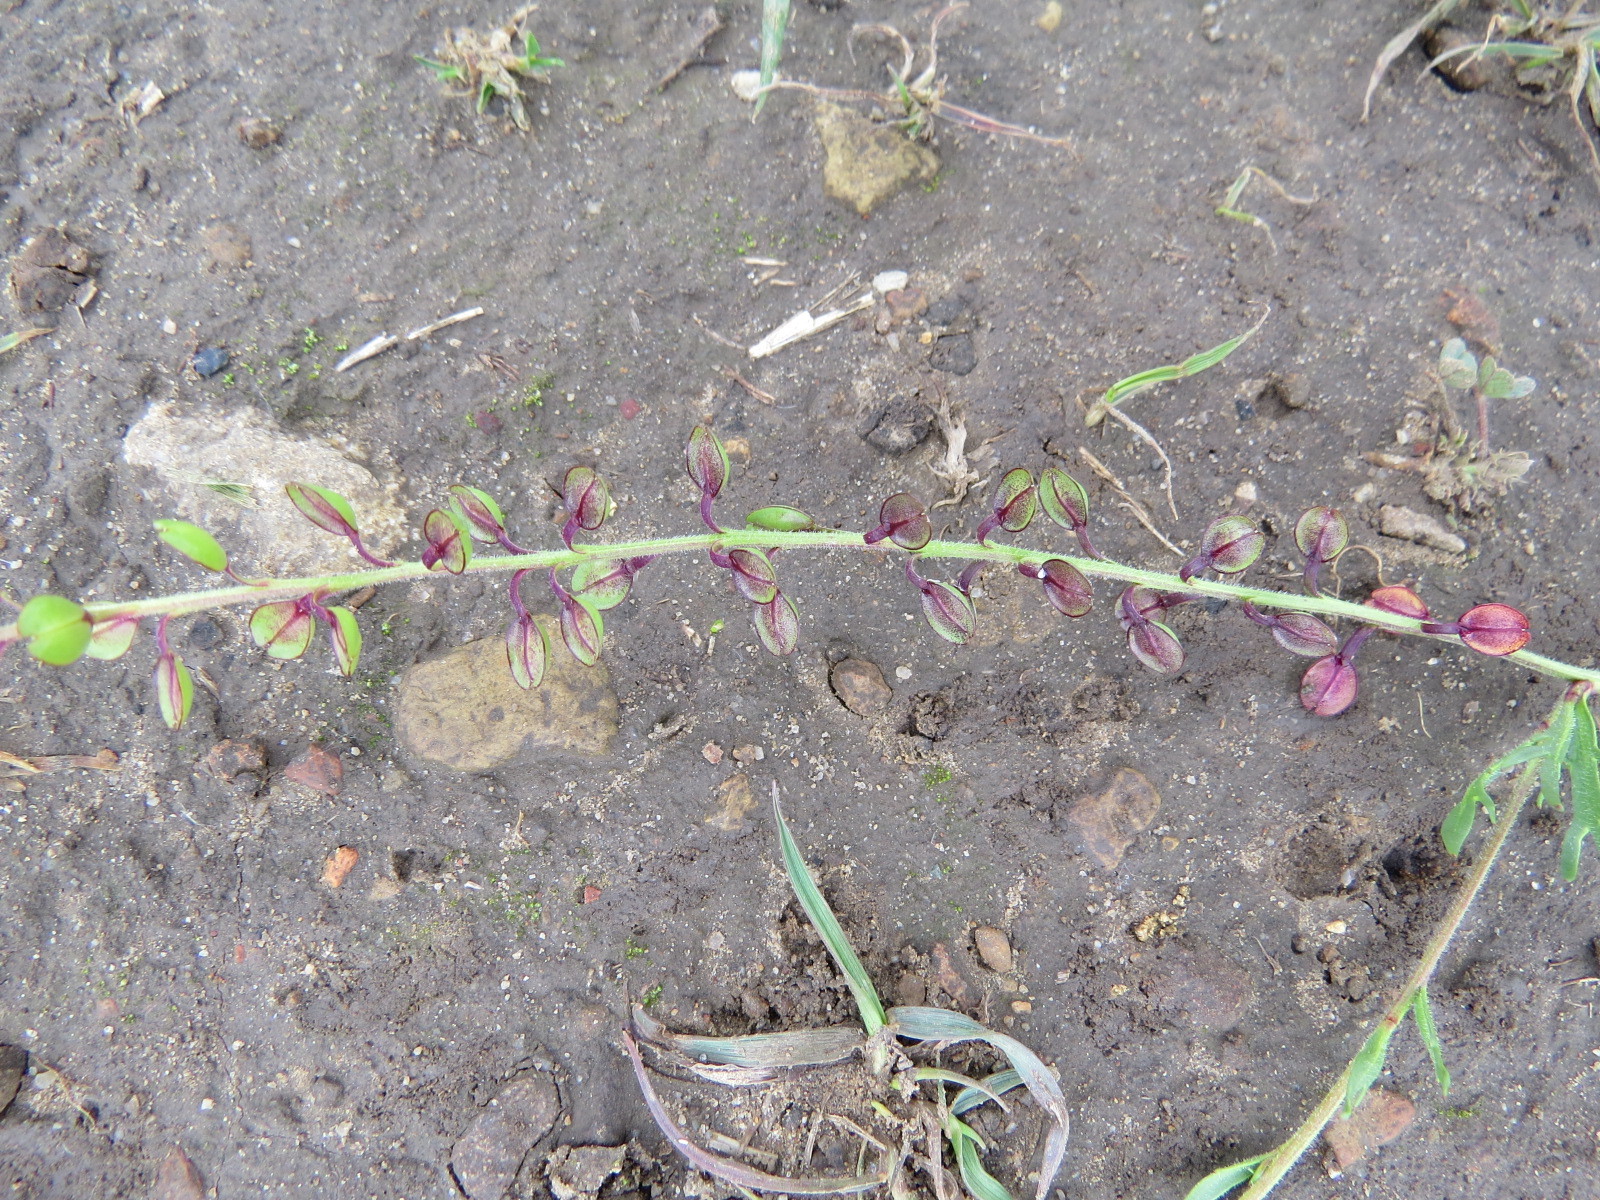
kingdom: Plantae
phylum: Tracheophyta
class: Magnoliopsida
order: Brassicales
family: Brassicaceae
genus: Lepidium
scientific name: Lepidium nitidum
